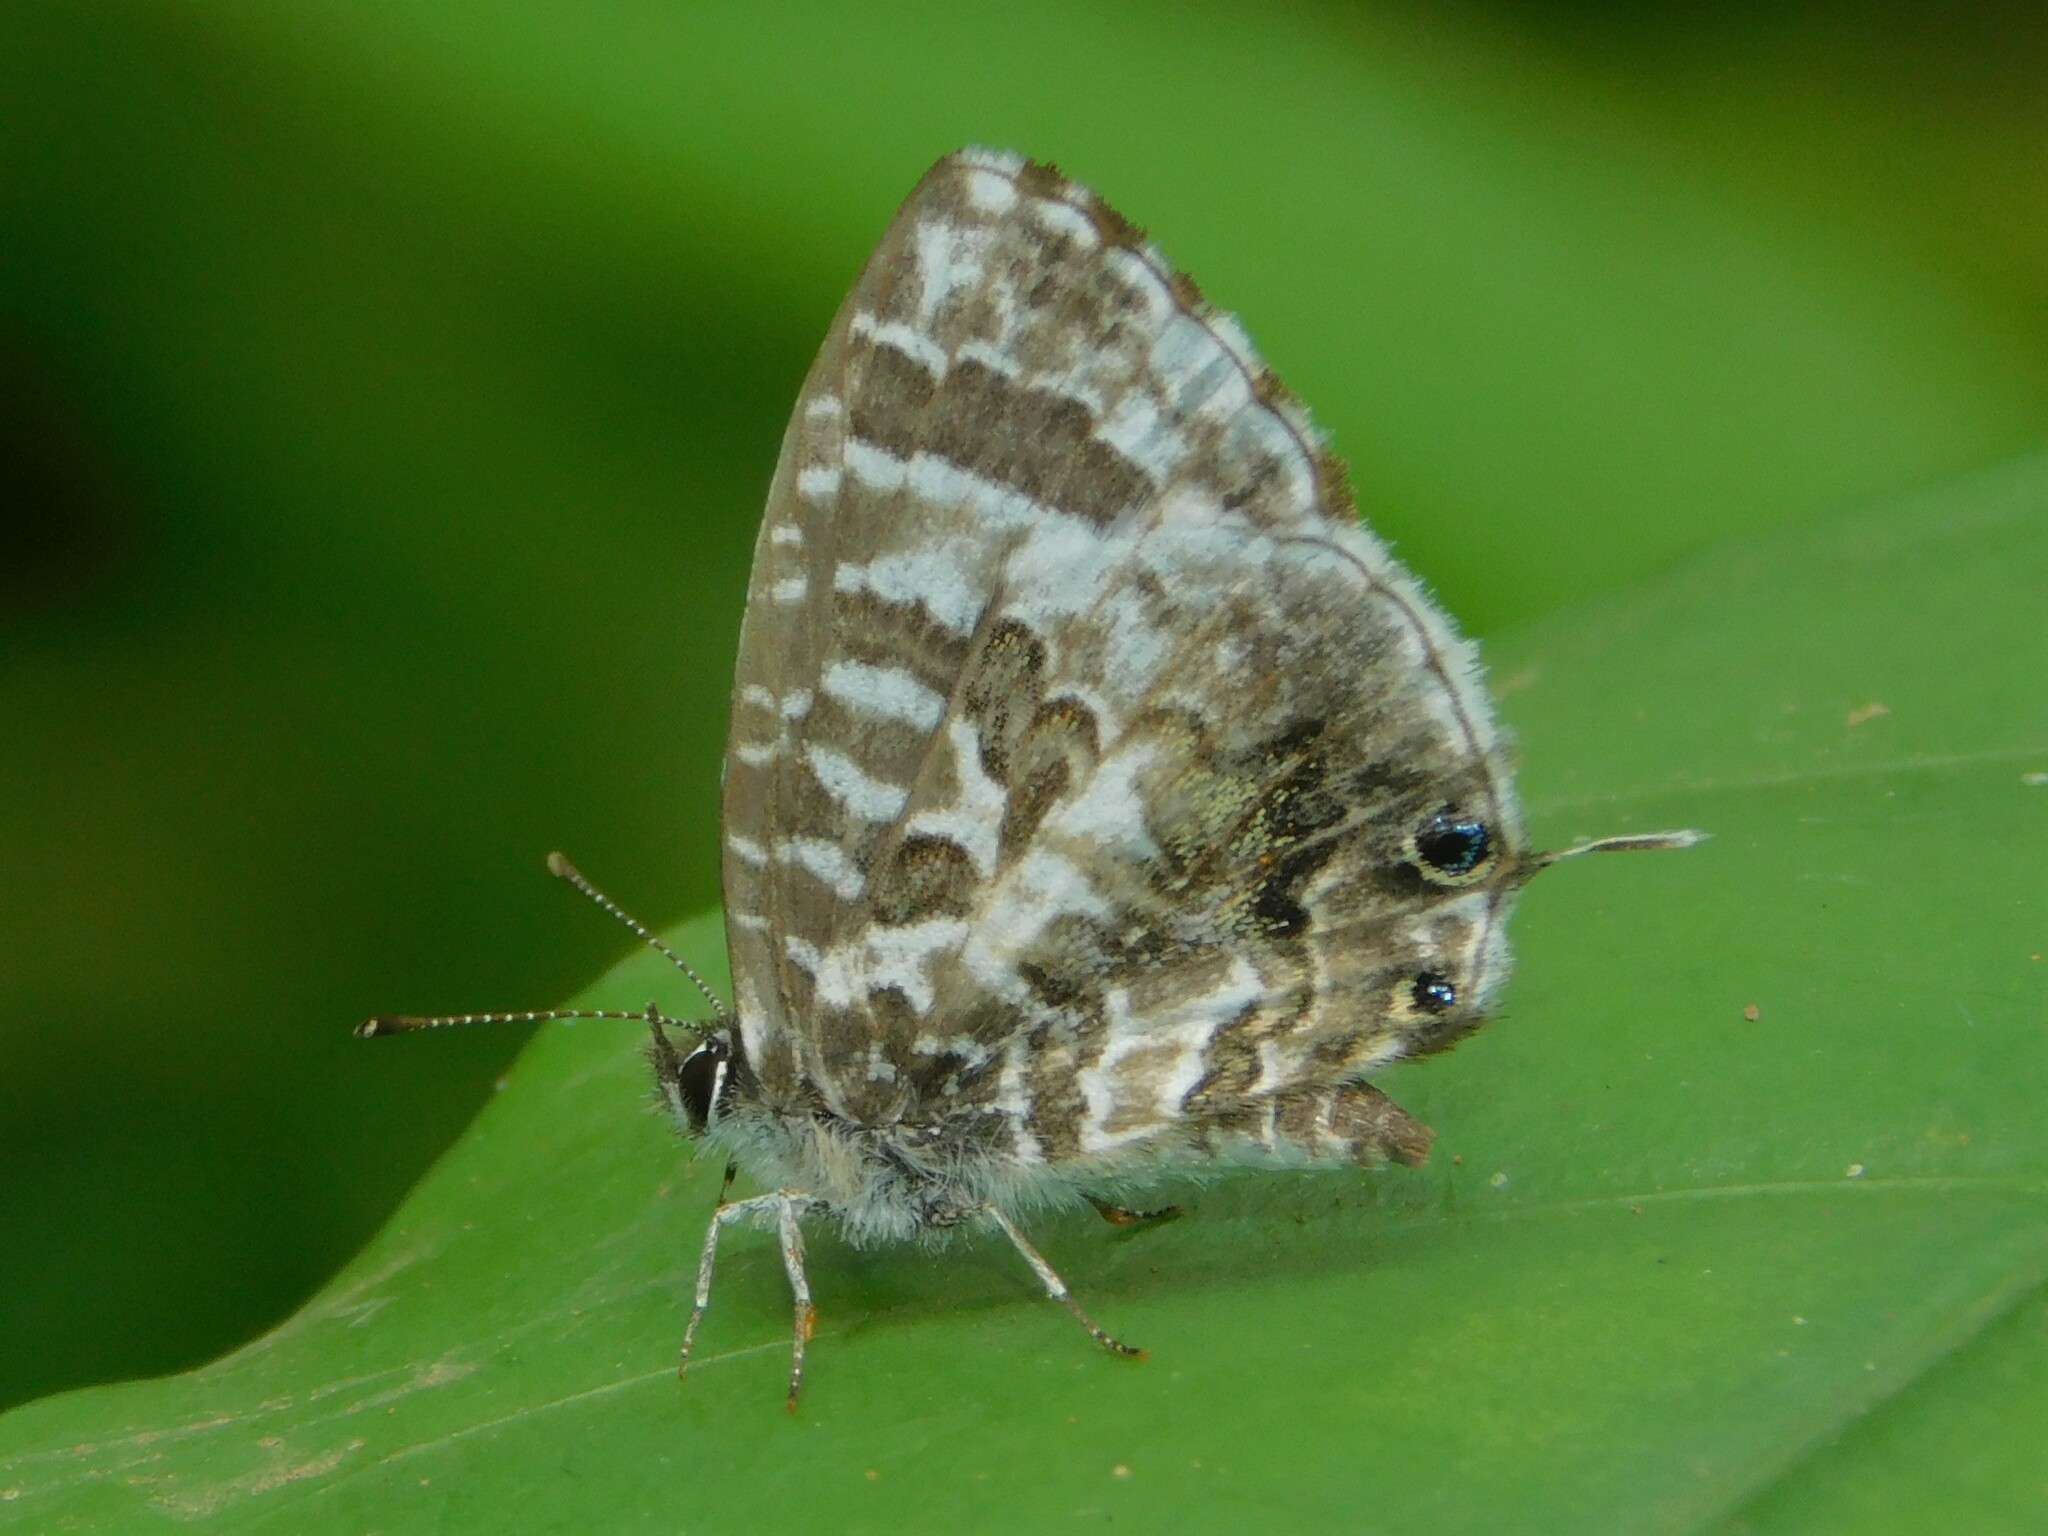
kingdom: Animalia
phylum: Arthropoda
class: Insecta
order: Lepidoptera
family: Lycaenidae
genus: Cacyreus
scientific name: Cacyreus audeoudi
